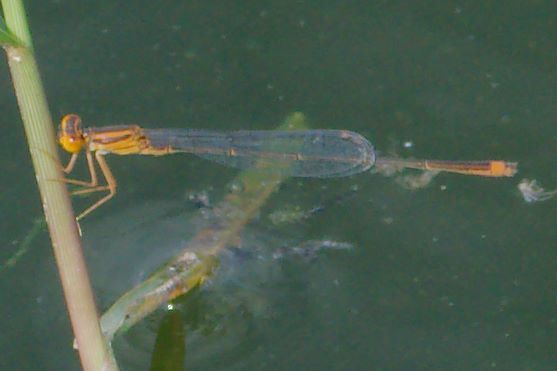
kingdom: Animalia
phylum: Arthropoda
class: Insecta
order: Odonata
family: Coenagrionidae
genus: Enallagma
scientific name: Enallagma pollutum
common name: Florida bluet
